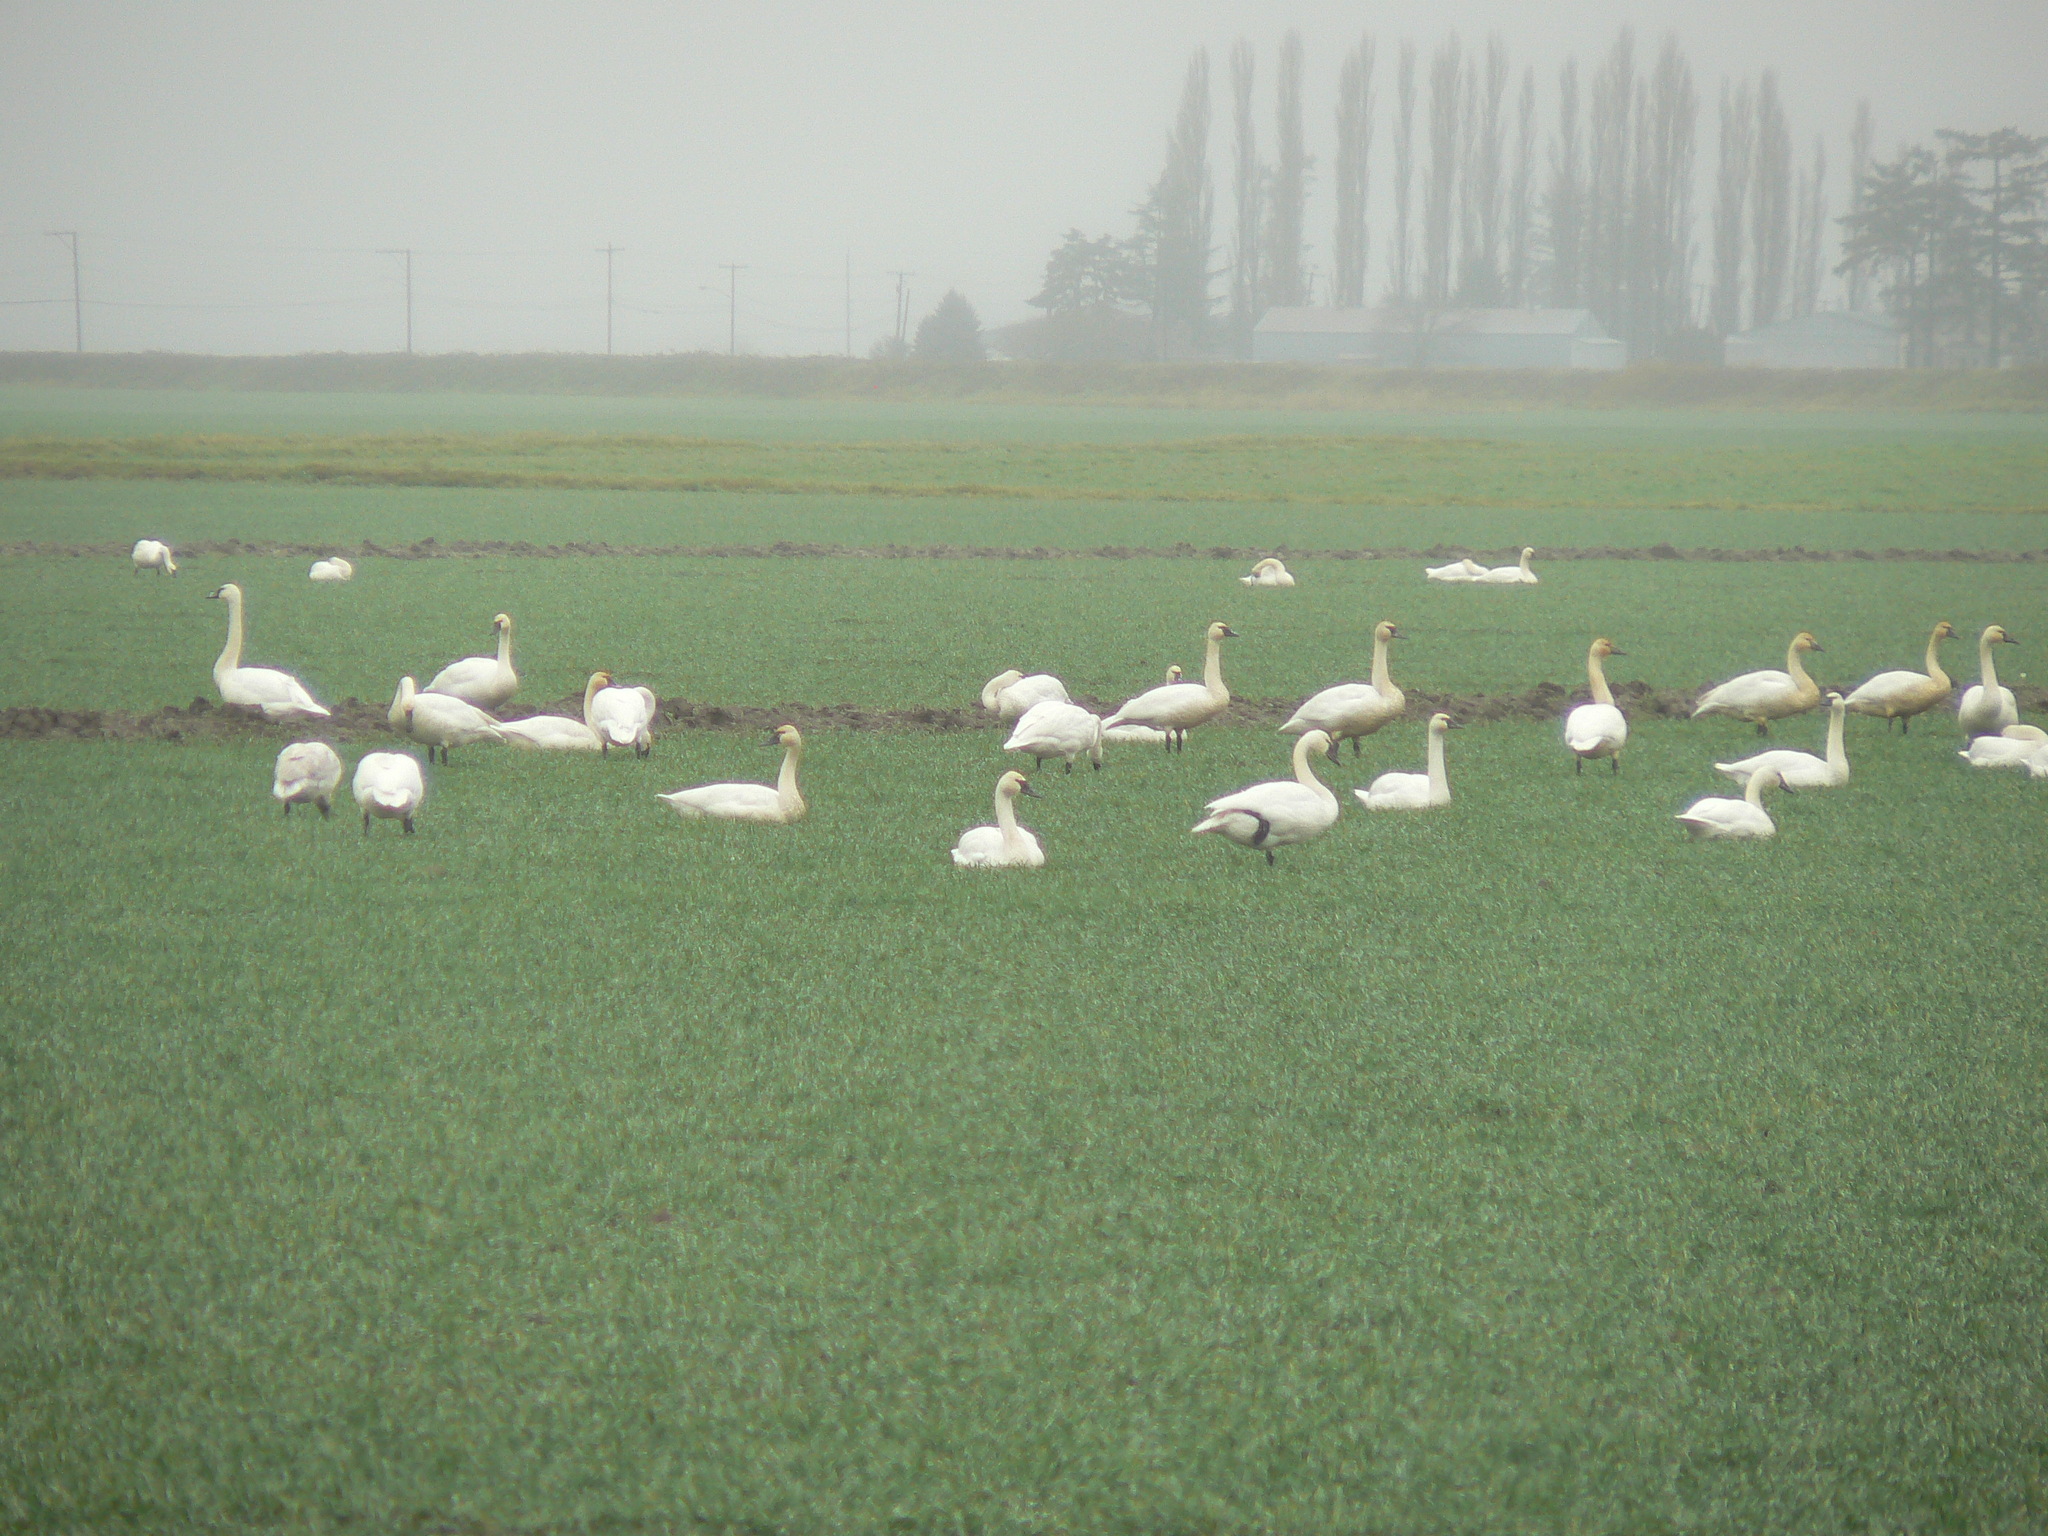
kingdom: Animalia
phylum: Chordata
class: Aves
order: Anseriformes
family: Anatidae
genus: Cygnus
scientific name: Cygnus buccinator
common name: Trumpeter swan
